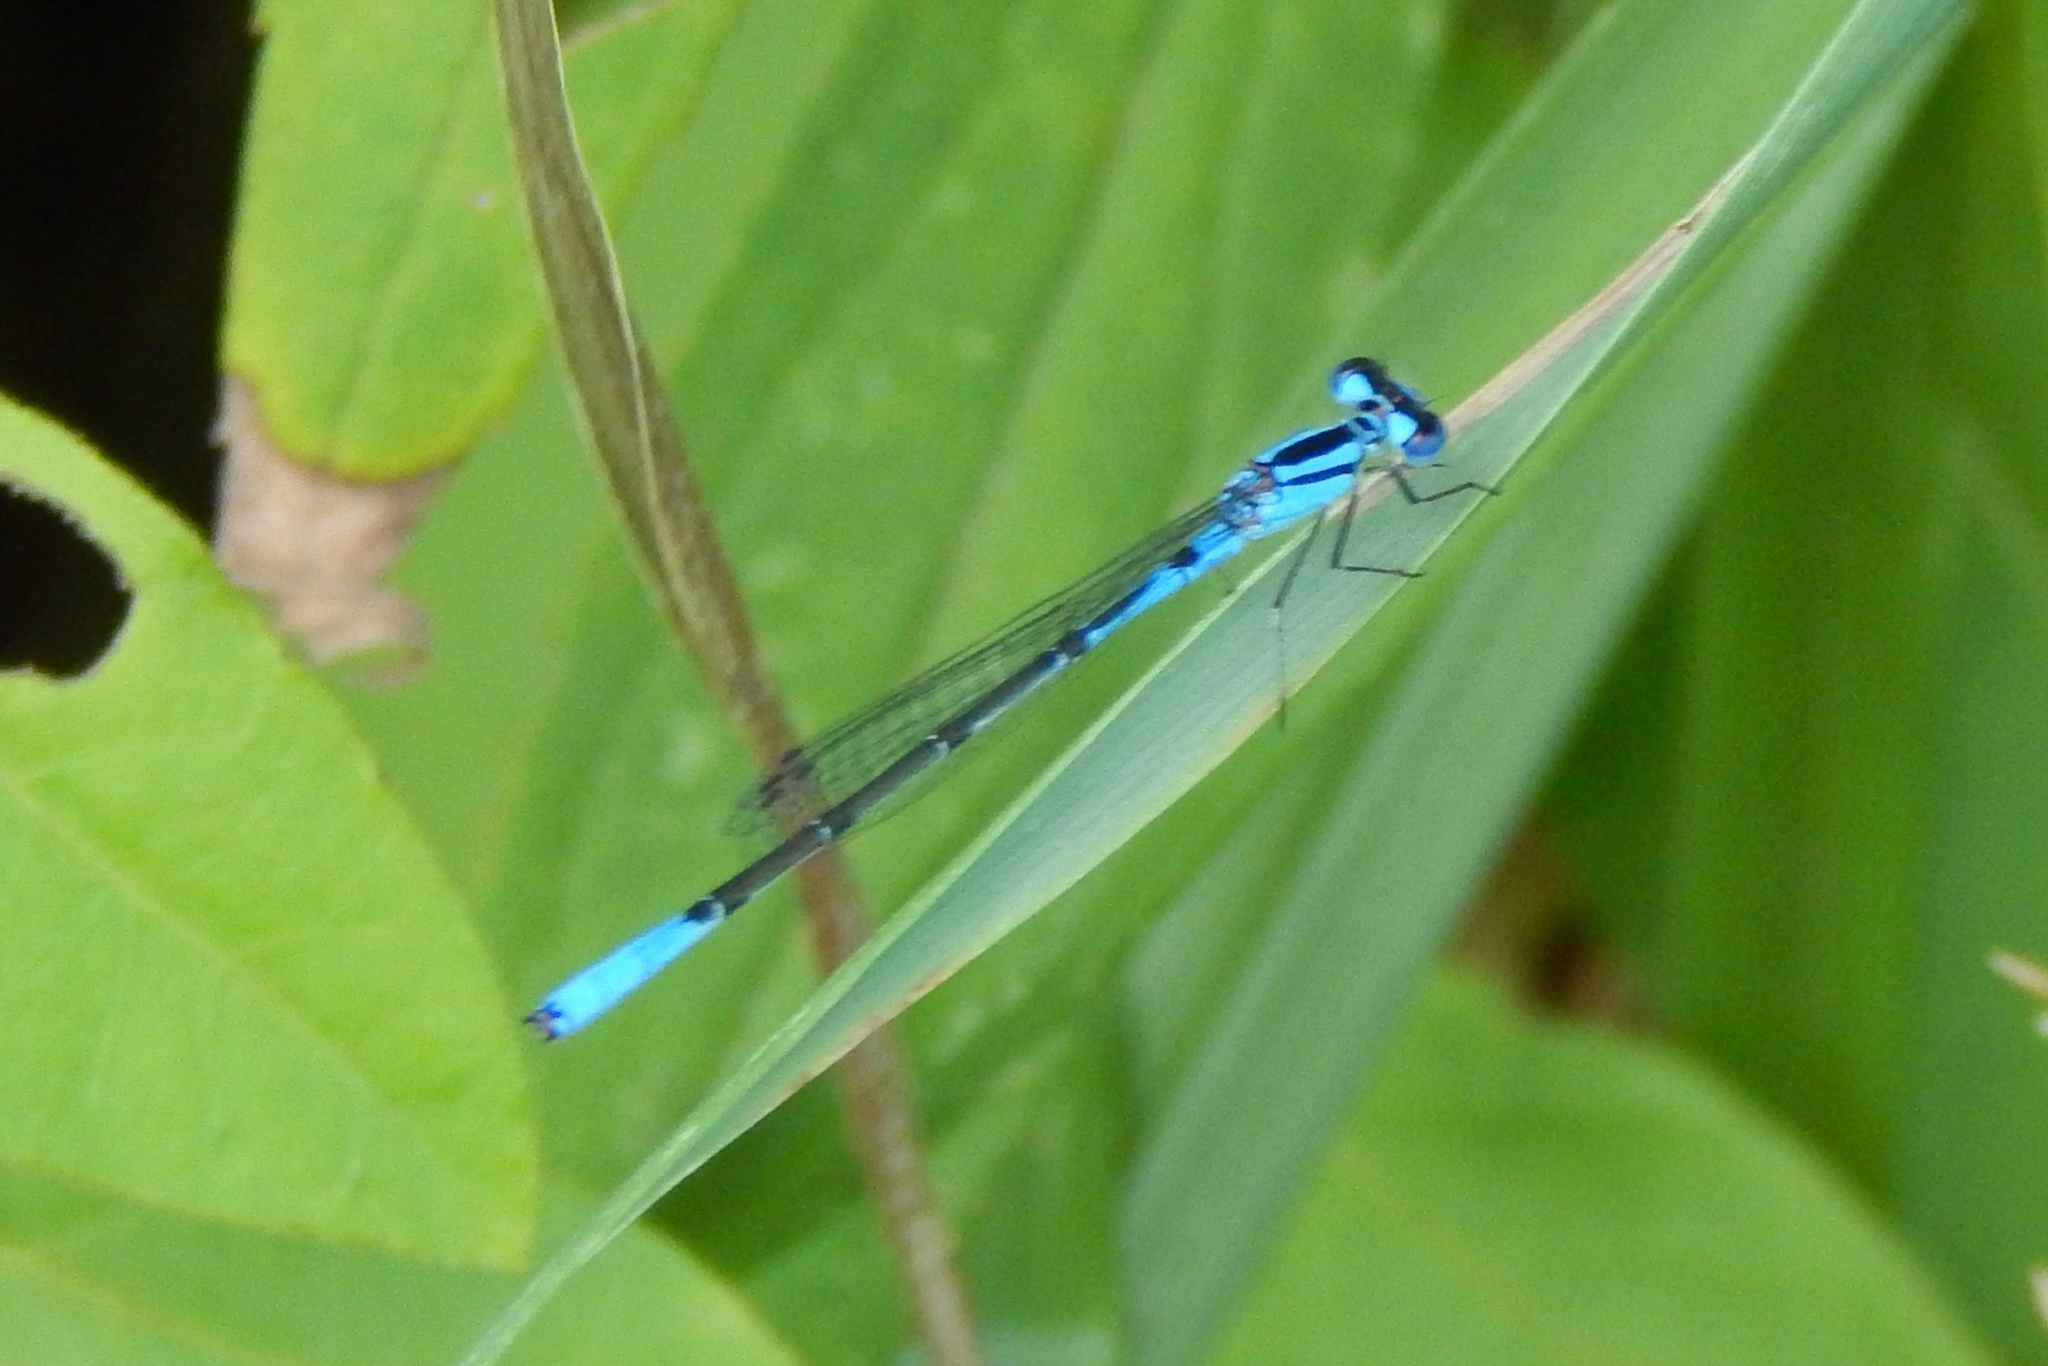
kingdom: Animalia
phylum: Arthropoda
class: Insecta
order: Odonata
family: Coenagrionidae
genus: Enallagma
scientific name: Enallagma aspersum
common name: Azure bluet
